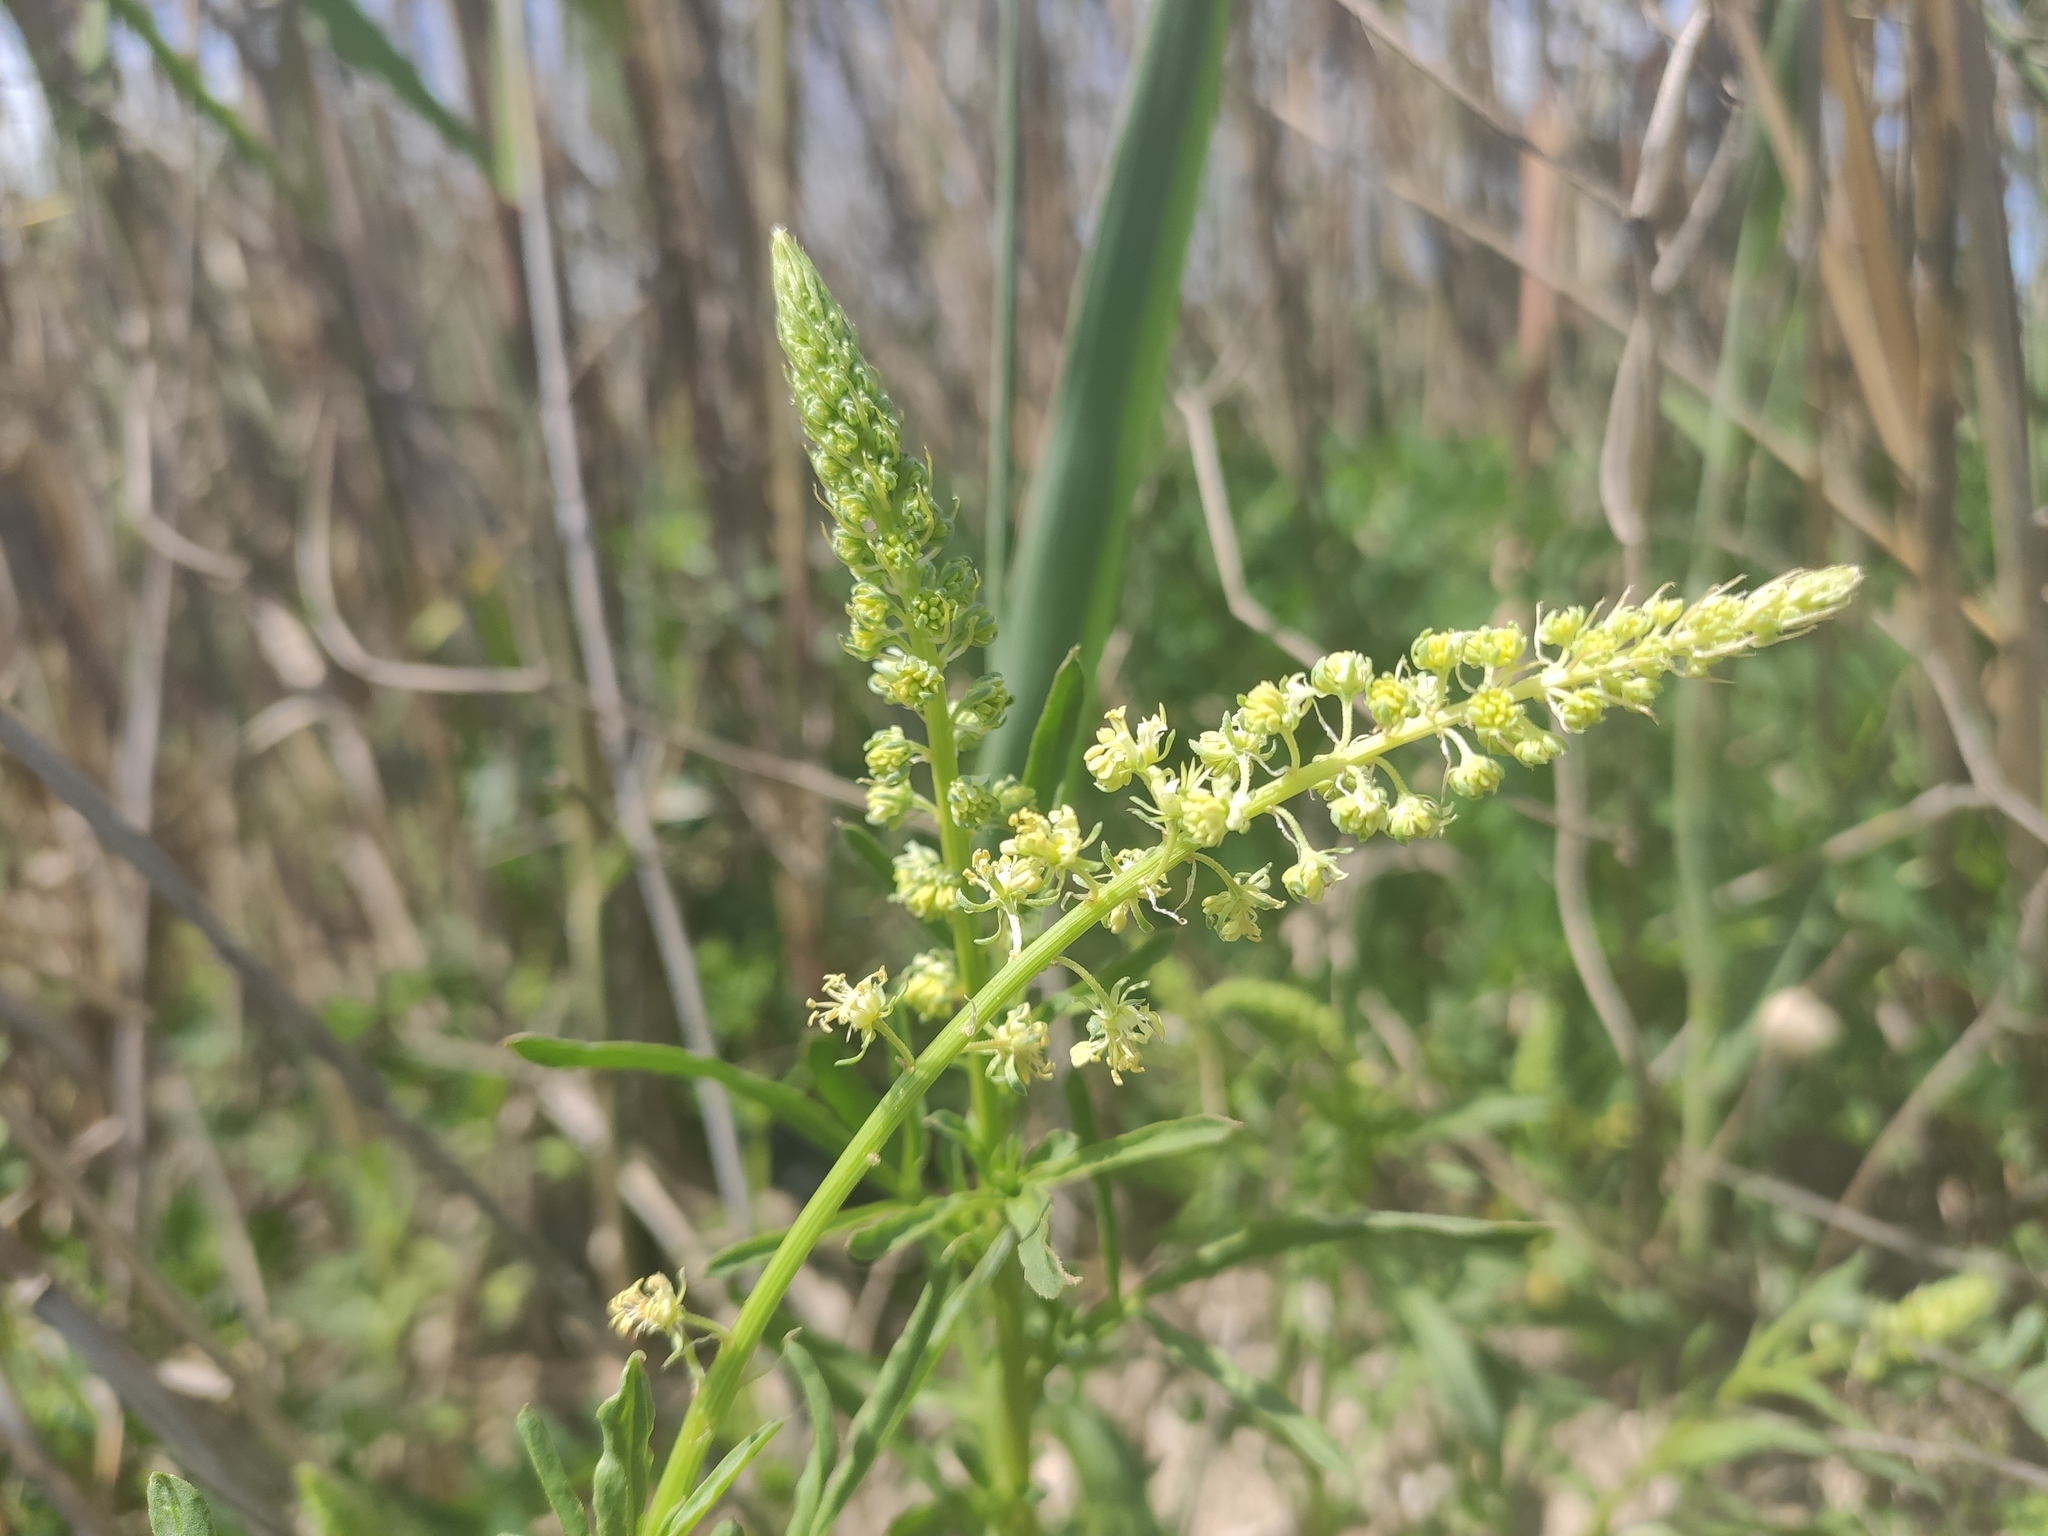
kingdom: Plantae
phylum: Tracheophyta
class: Magnoliopsida
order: Brassicales
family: Resedaceae
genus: Reseda
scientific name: Reseda lutea
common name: Wild mignonette
